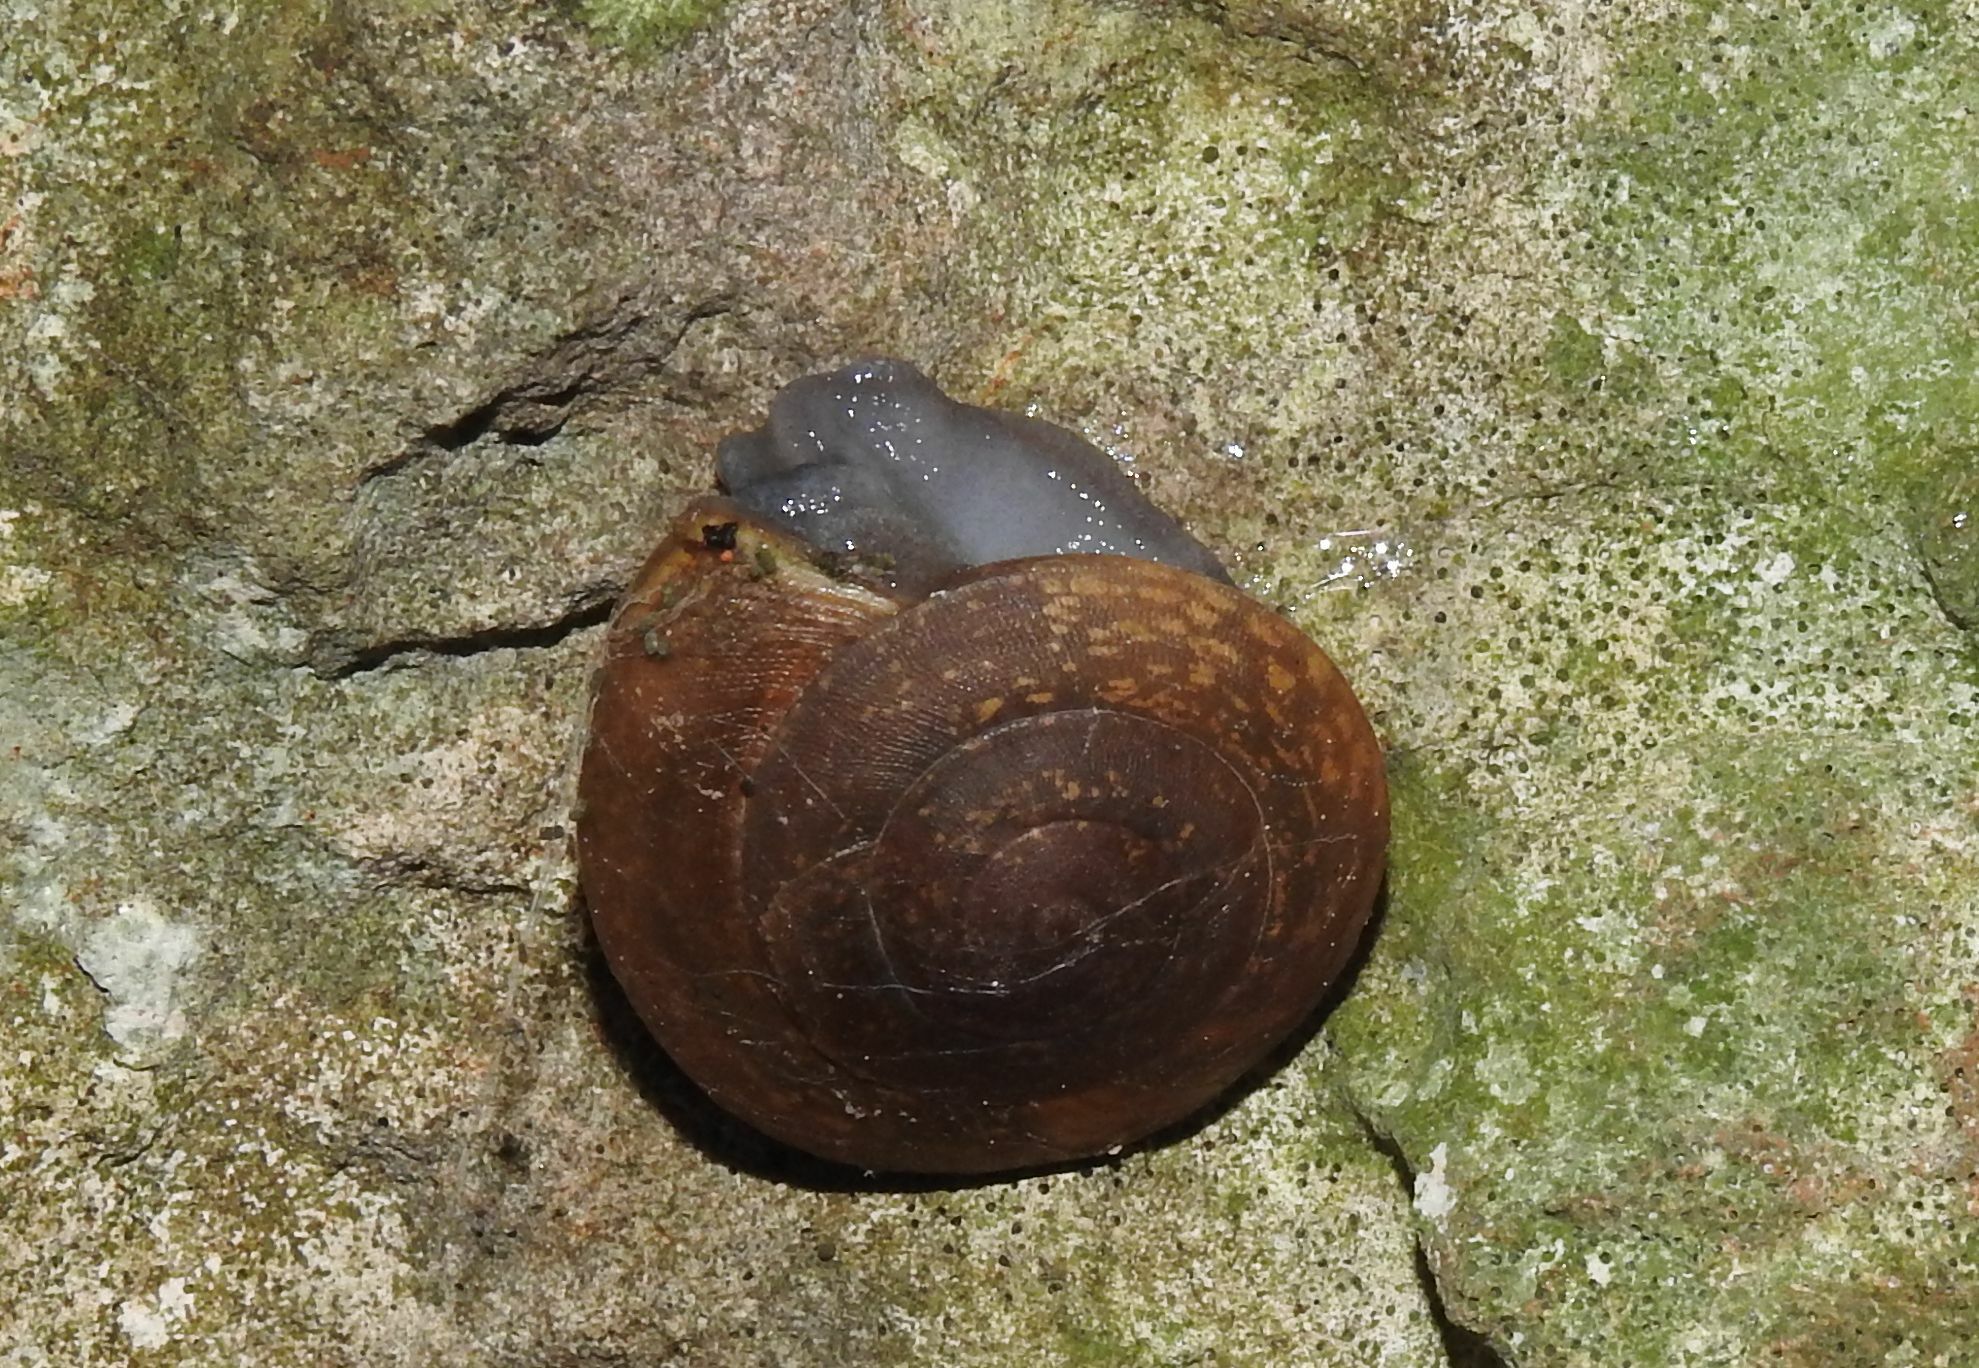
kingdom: Animalia
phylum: Mollusca
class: Gastropoda
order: Stylommatophora
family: Zonitidae
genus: Zonites
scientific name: Zonites algirus
